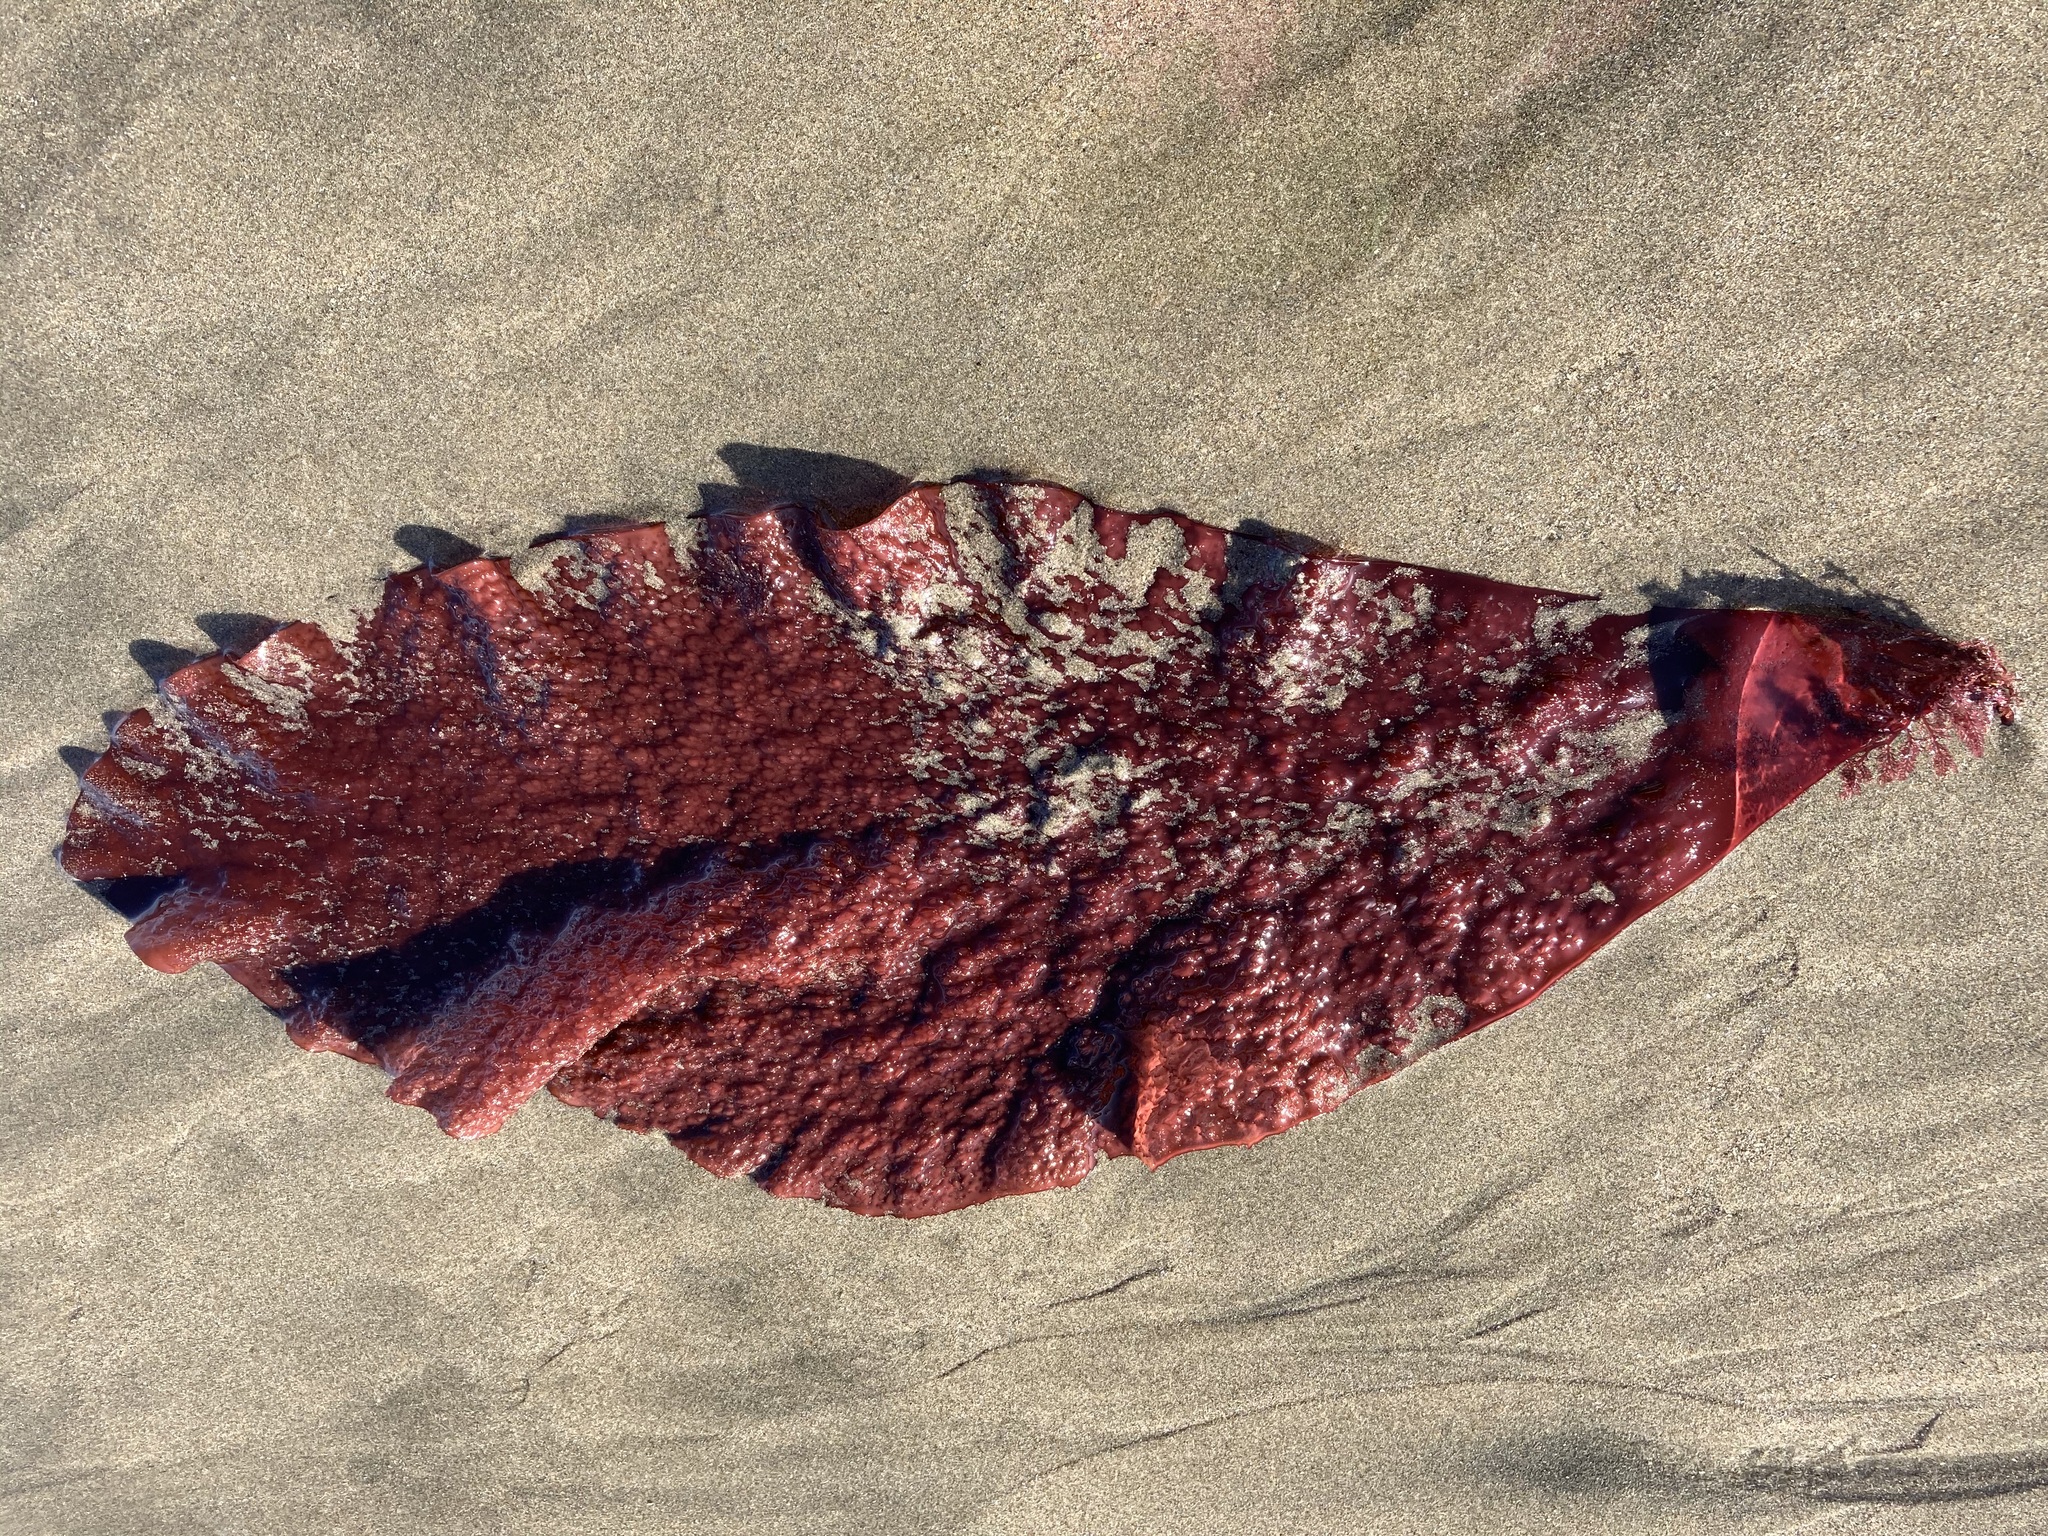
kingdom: Plantae
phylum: Rhodophyta
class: Florideophyceae
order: Gigartinales
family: Gigartinaceae
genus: Chondracanthus
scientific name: Chondracanthus exasperatus
